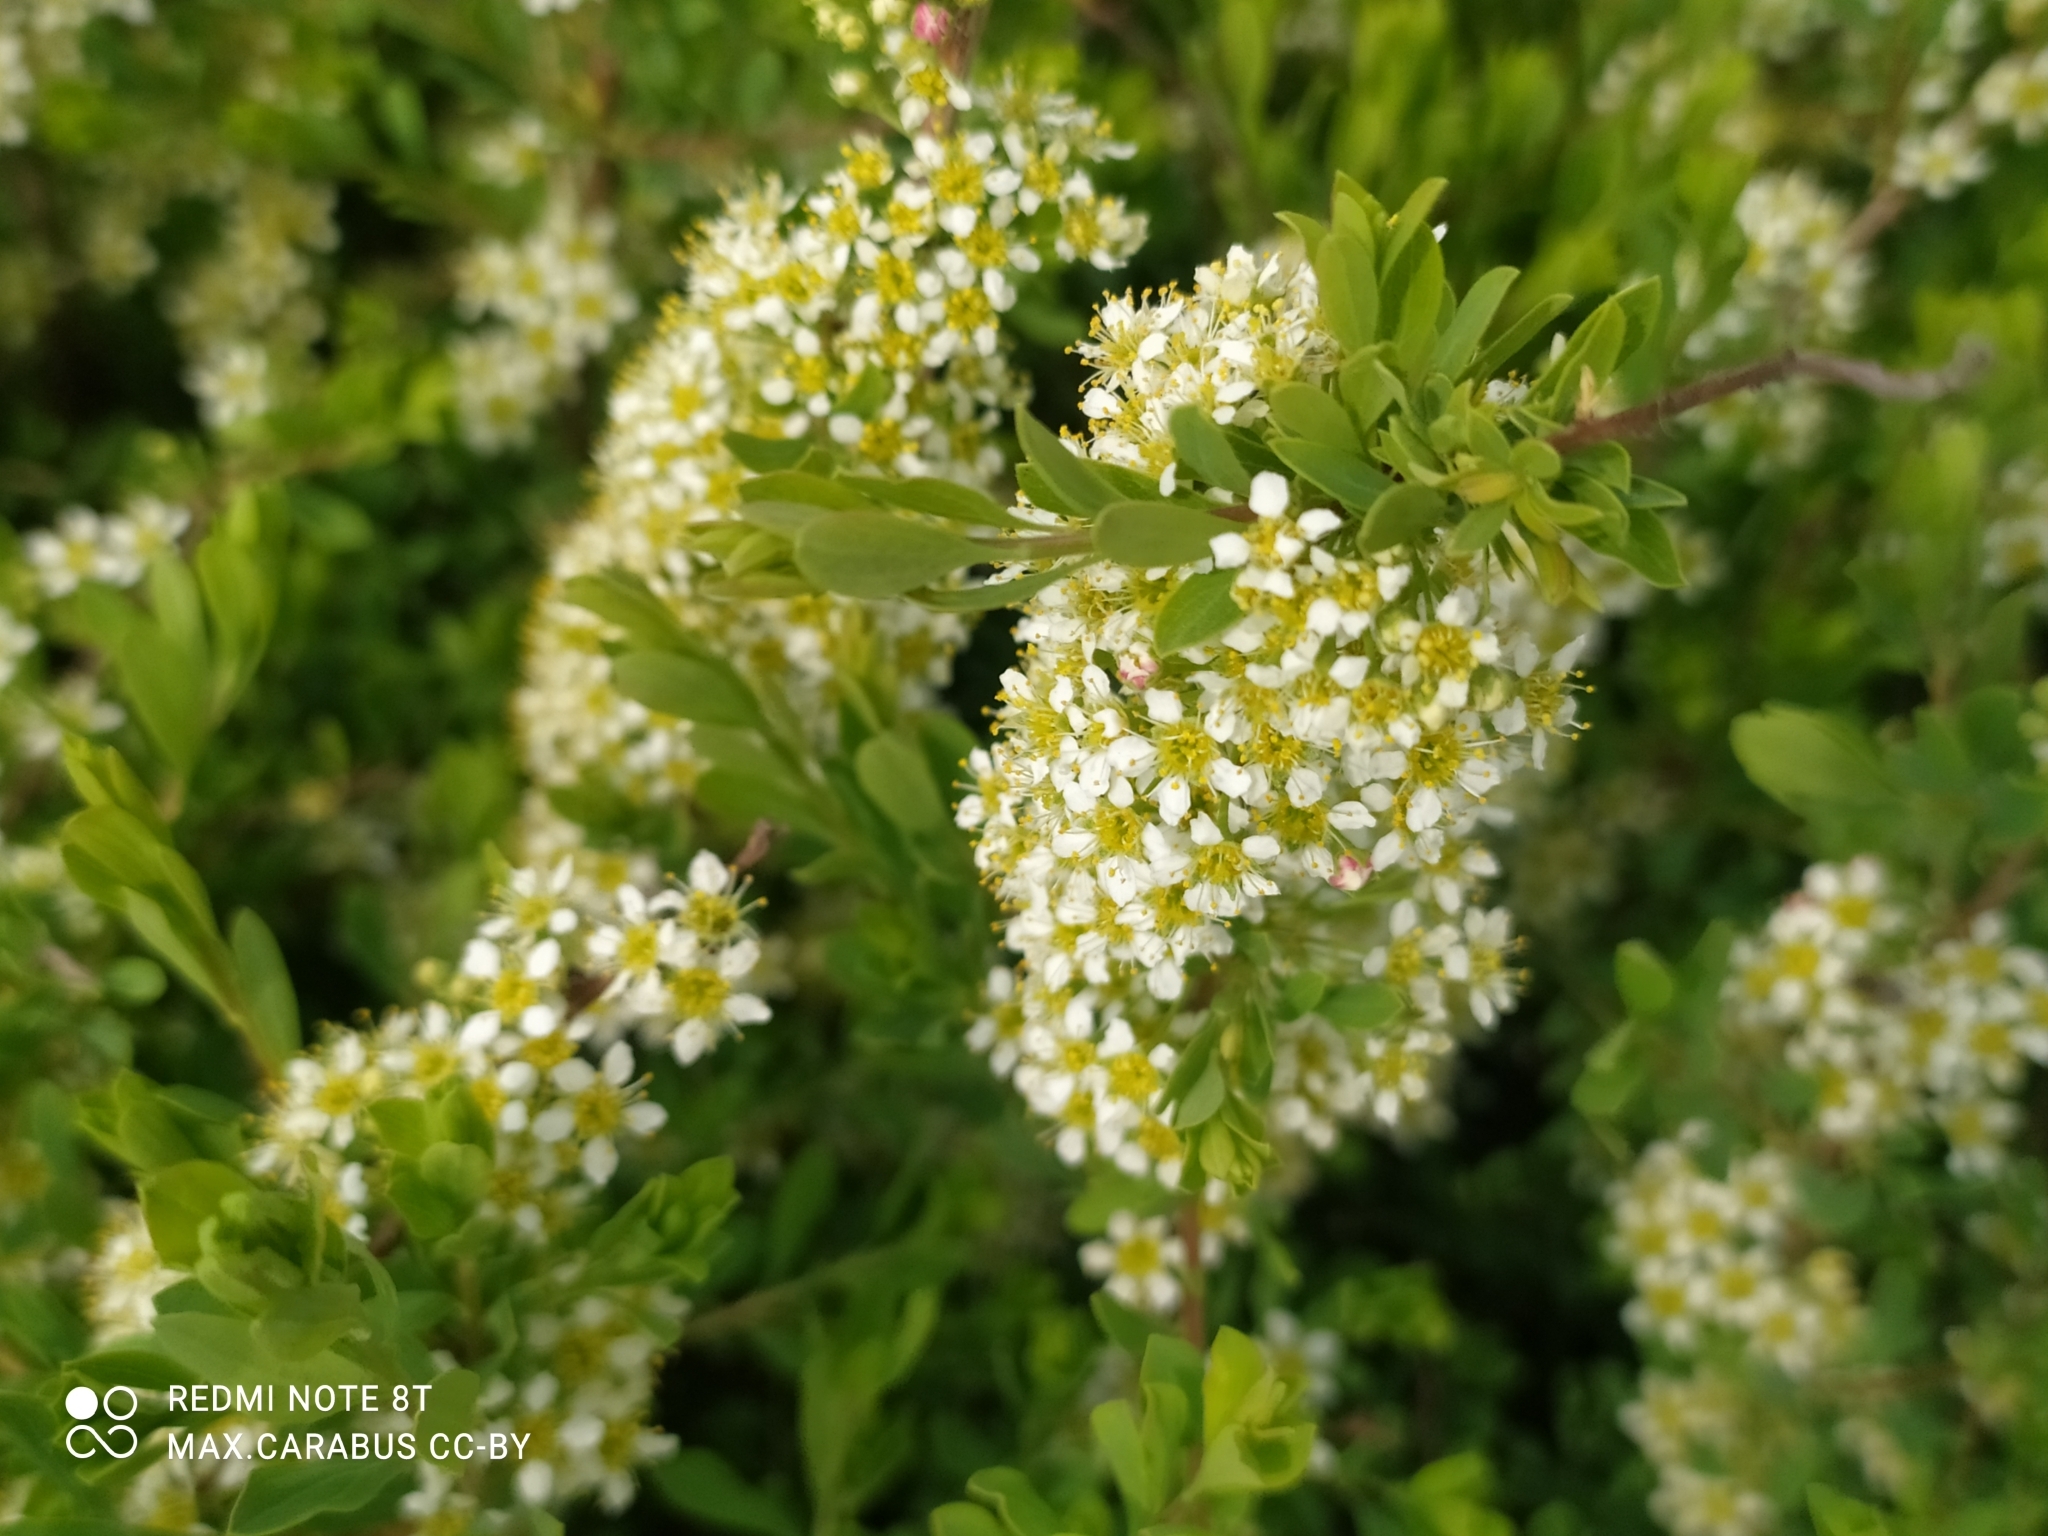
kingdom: Plantae
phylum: Tracheophyta
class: Magnoliopsida
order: Rosales
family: Rosaceae
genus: Spiraea
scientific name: Spiraea hypericifolia
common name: Iberian spirea
